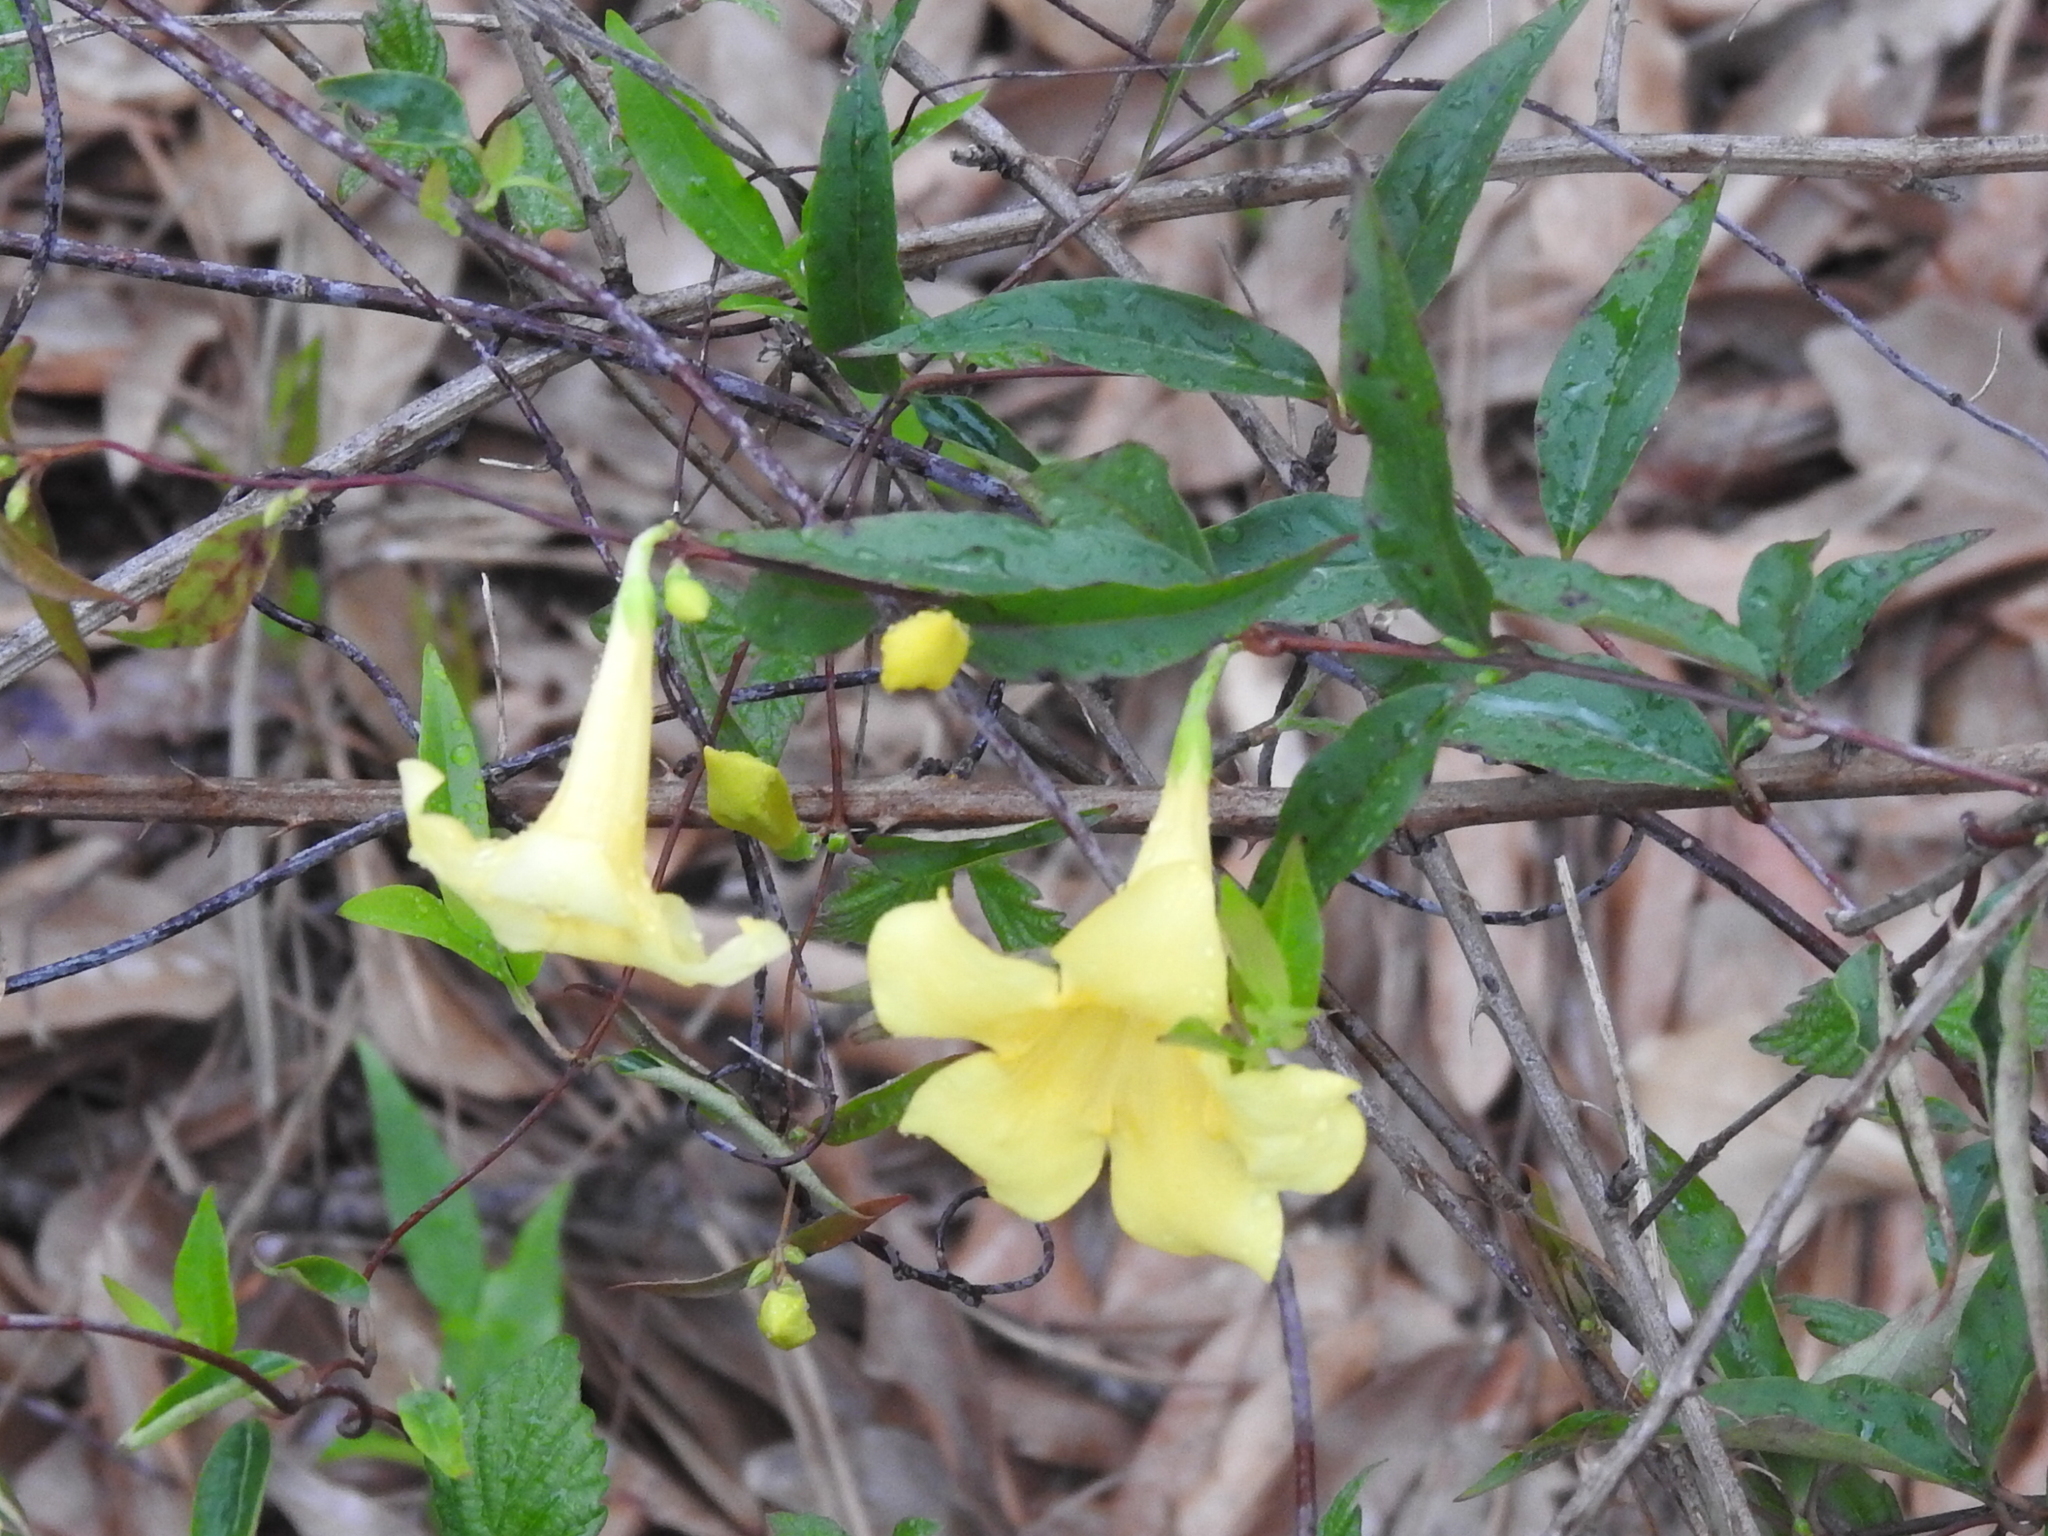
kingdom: Plantae
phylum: Tracheophyta
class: Magnoliopsida
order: Gentianales
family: Gelsemiaceae
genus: Gelsemium
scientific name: Gelsemium sempervirens
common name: Carolina-jasmine
